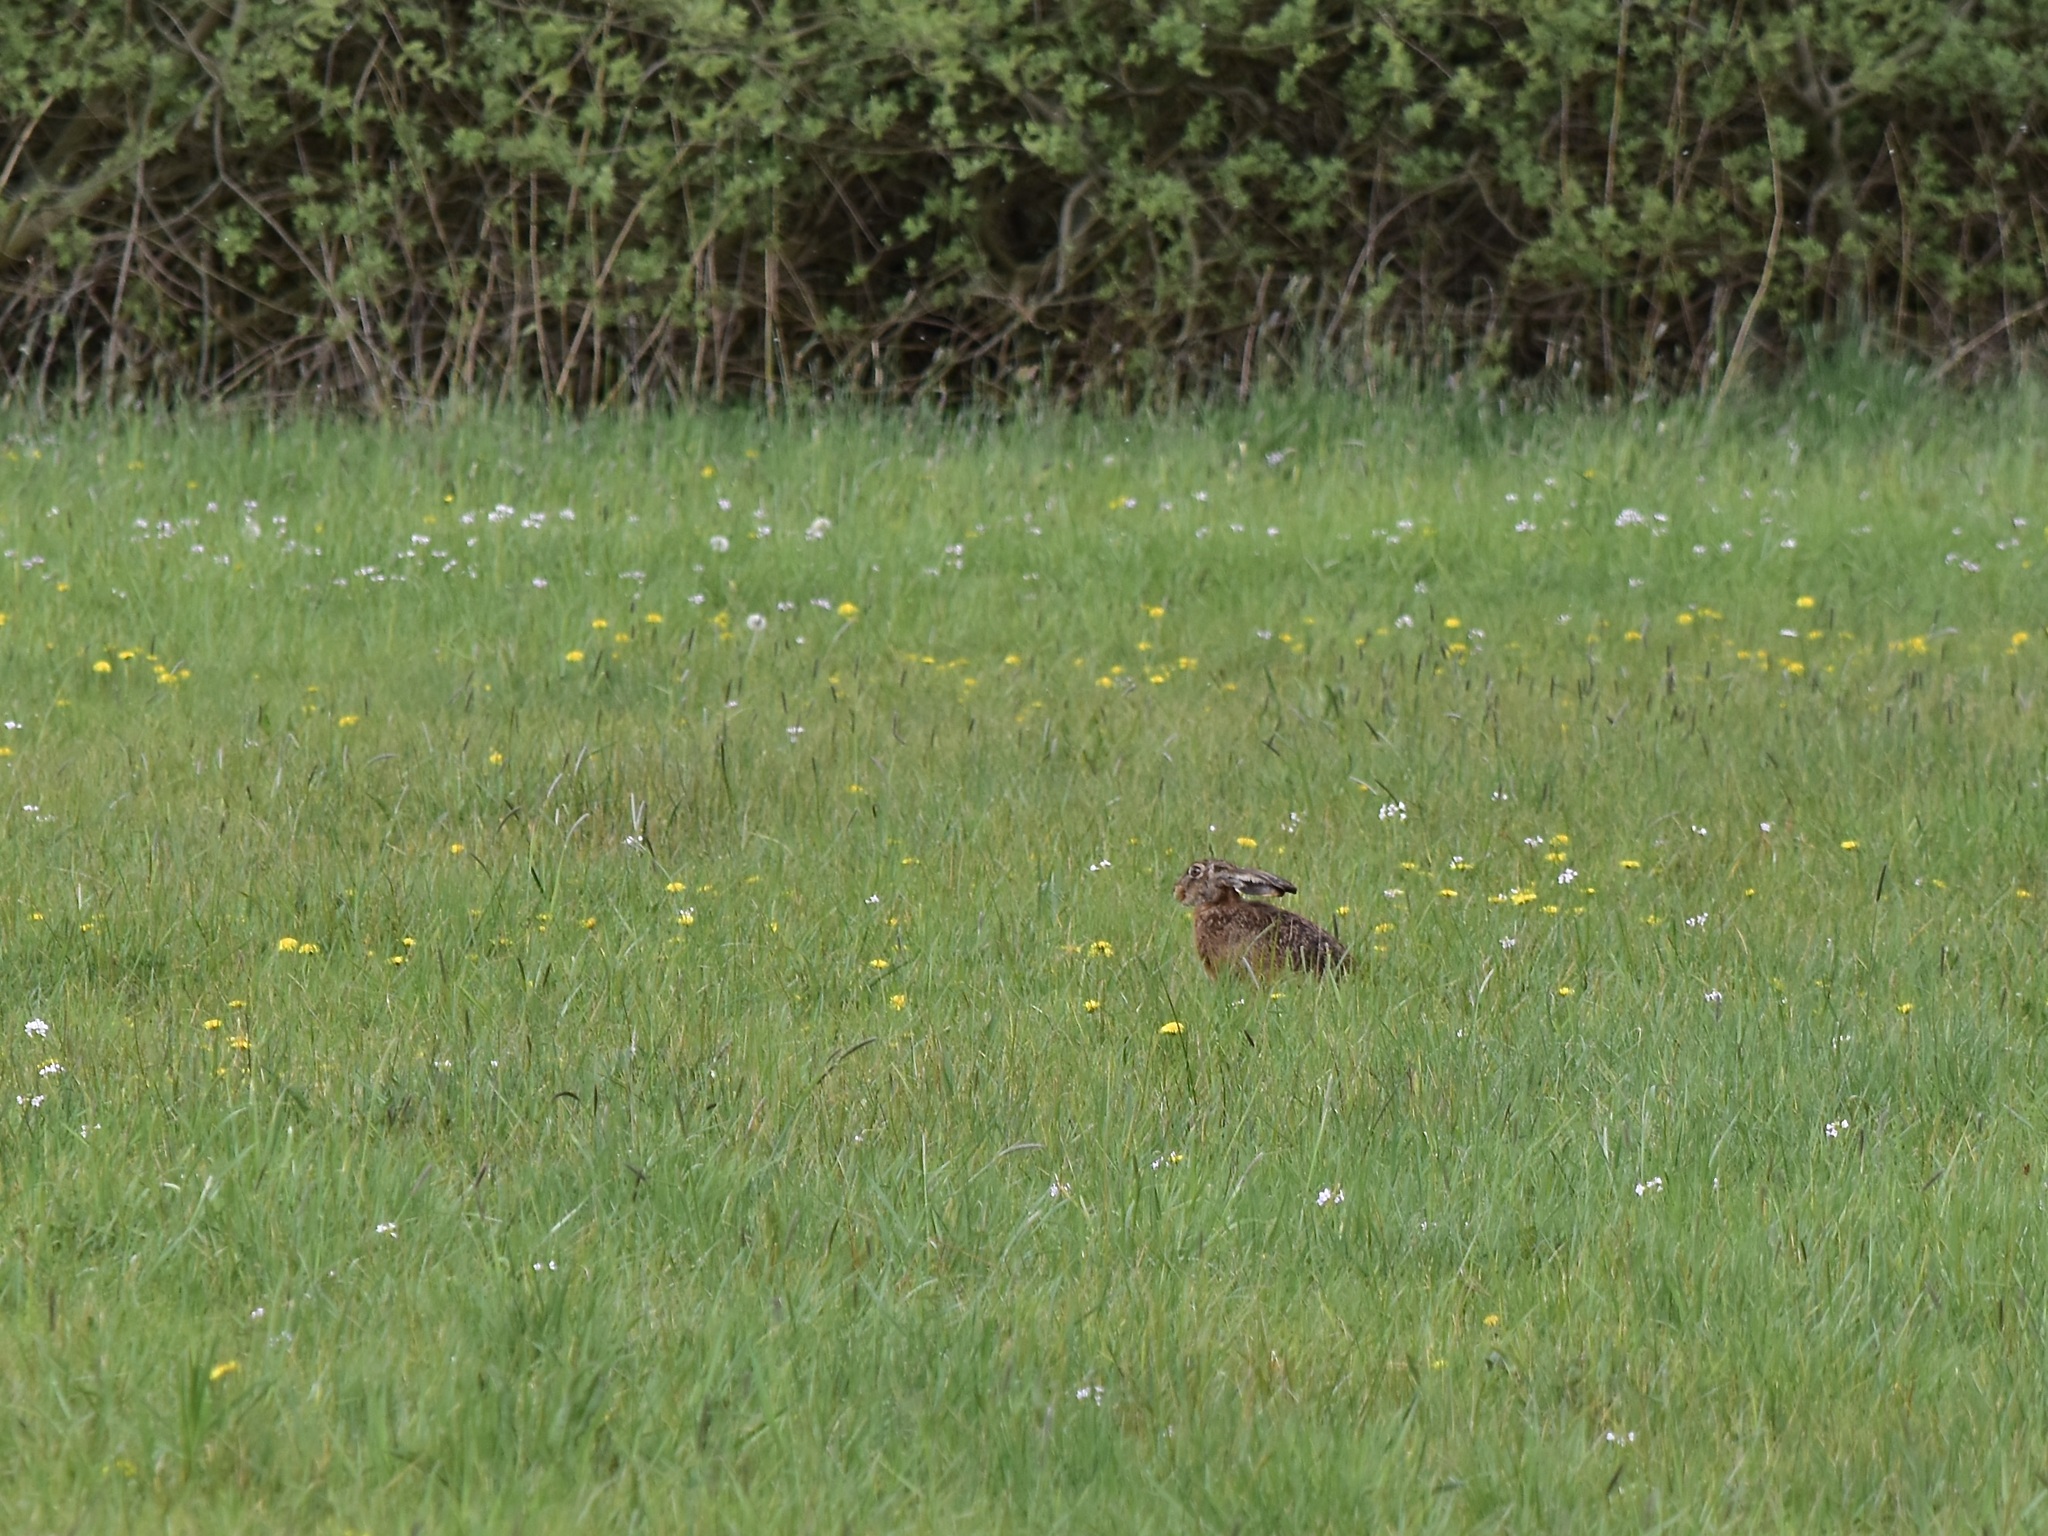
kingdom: Animalia
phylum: Chordata
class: Mammalia
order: Lagomorpha
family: Leporidae
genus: Lepus
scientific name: Lepus europaeus
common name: European hare
